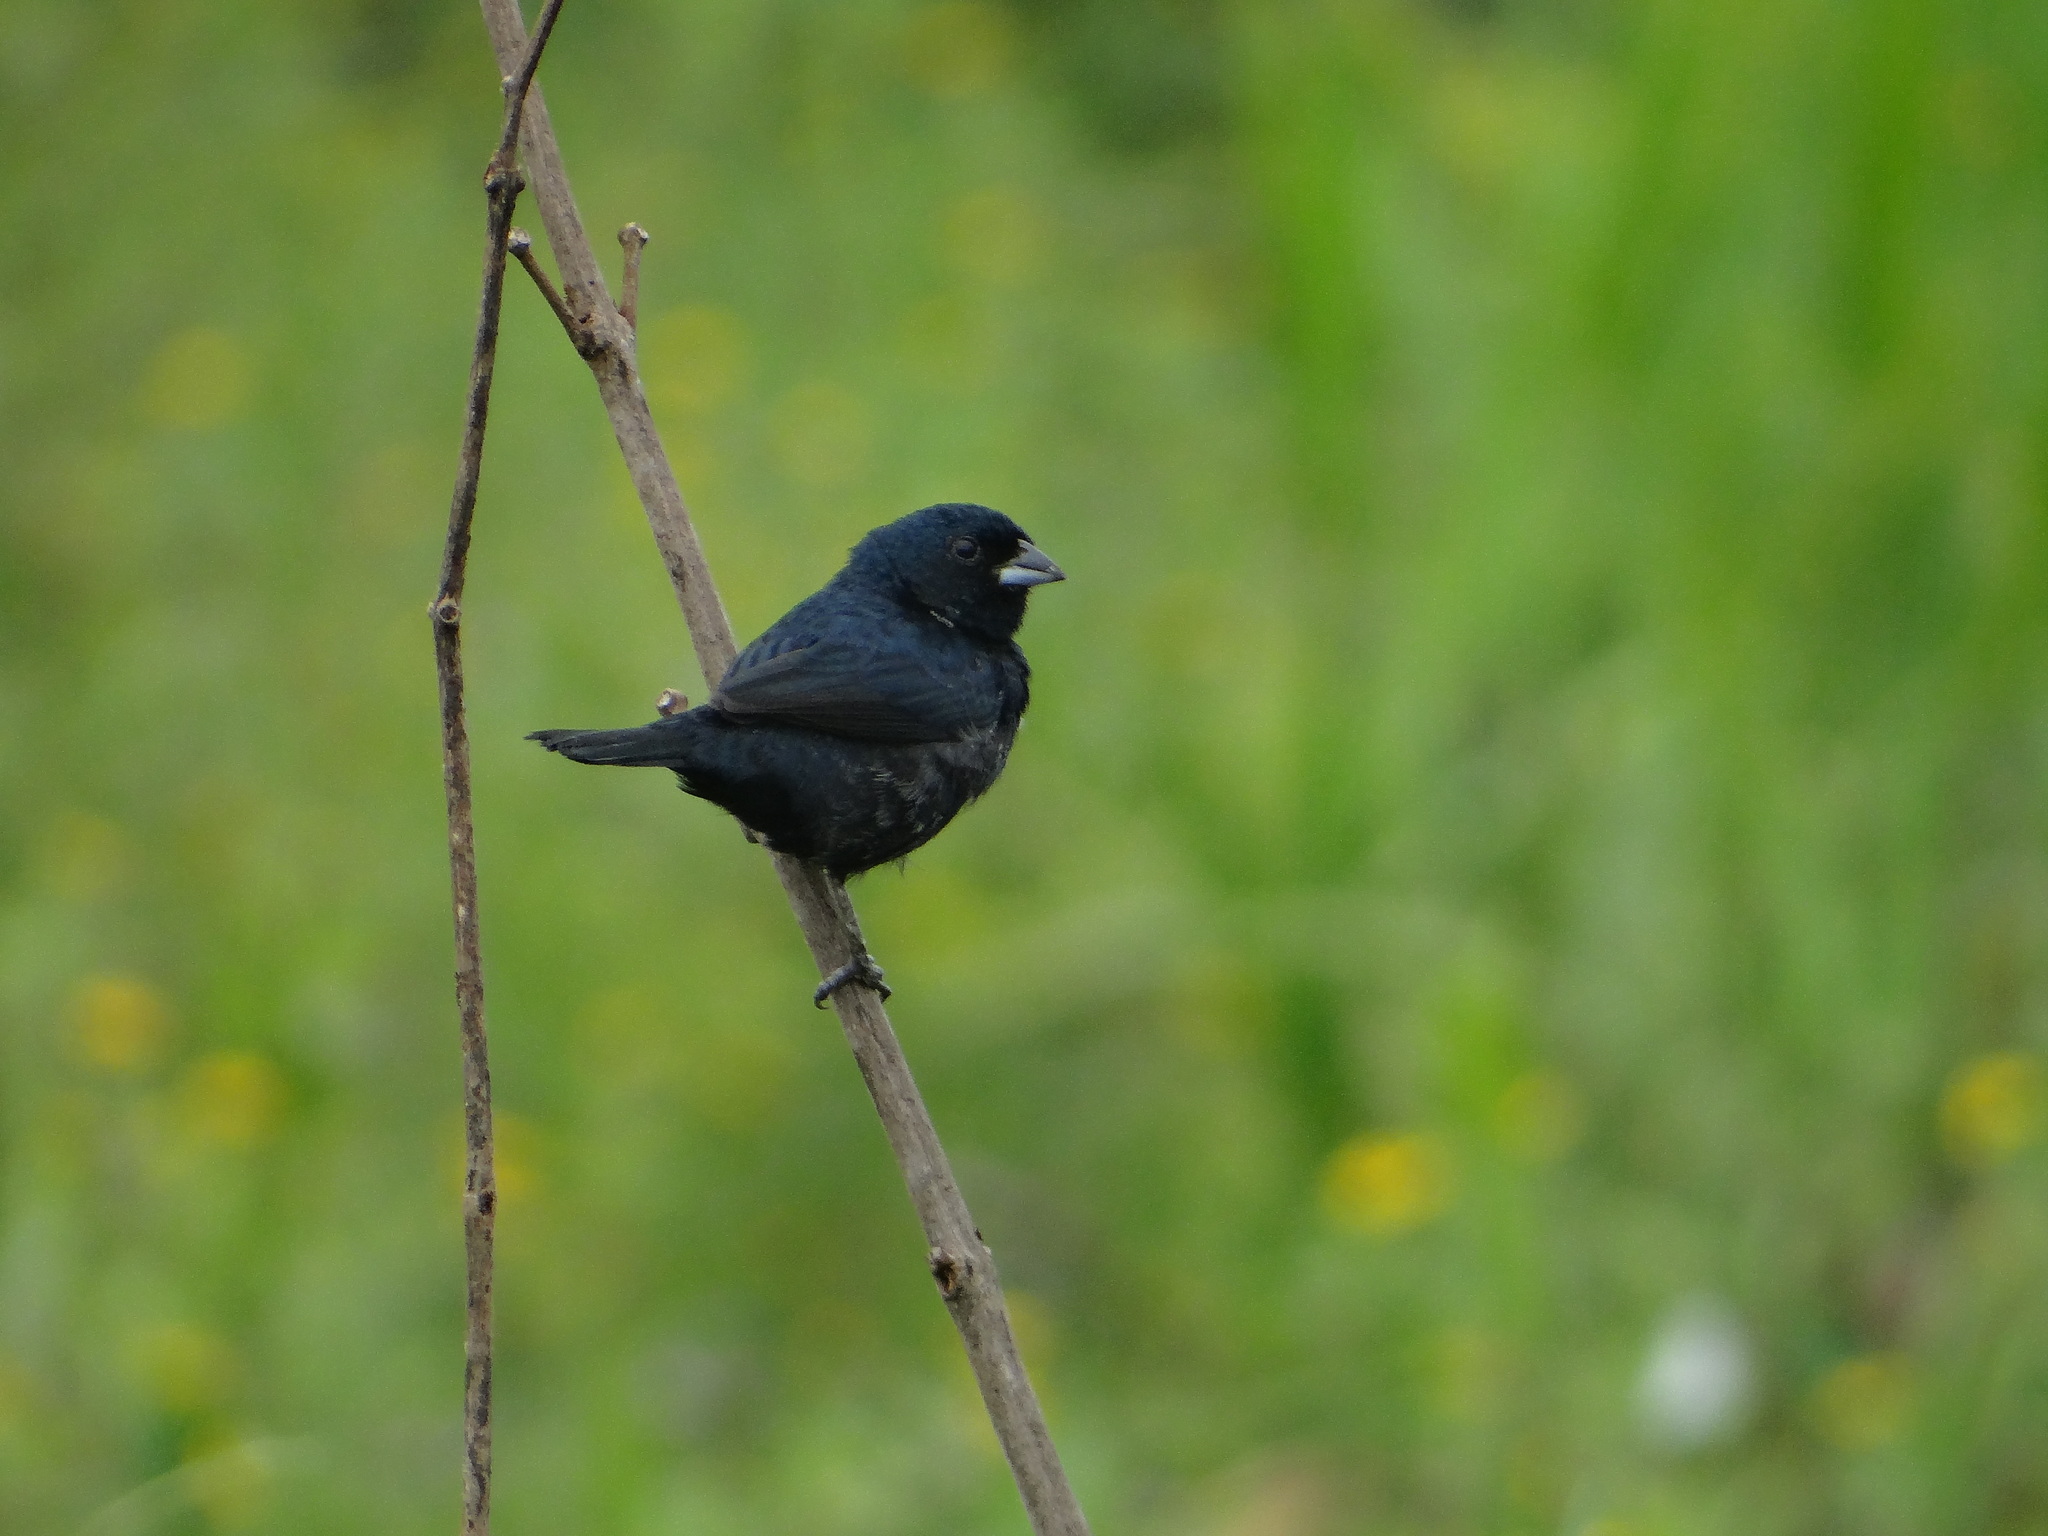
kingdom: Animalia
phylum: Chordata
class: Aves
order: Passeriformes
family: Thraupidae
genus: Volatinia
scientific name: Volatinia jacarina
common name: Blue-black grassquit
